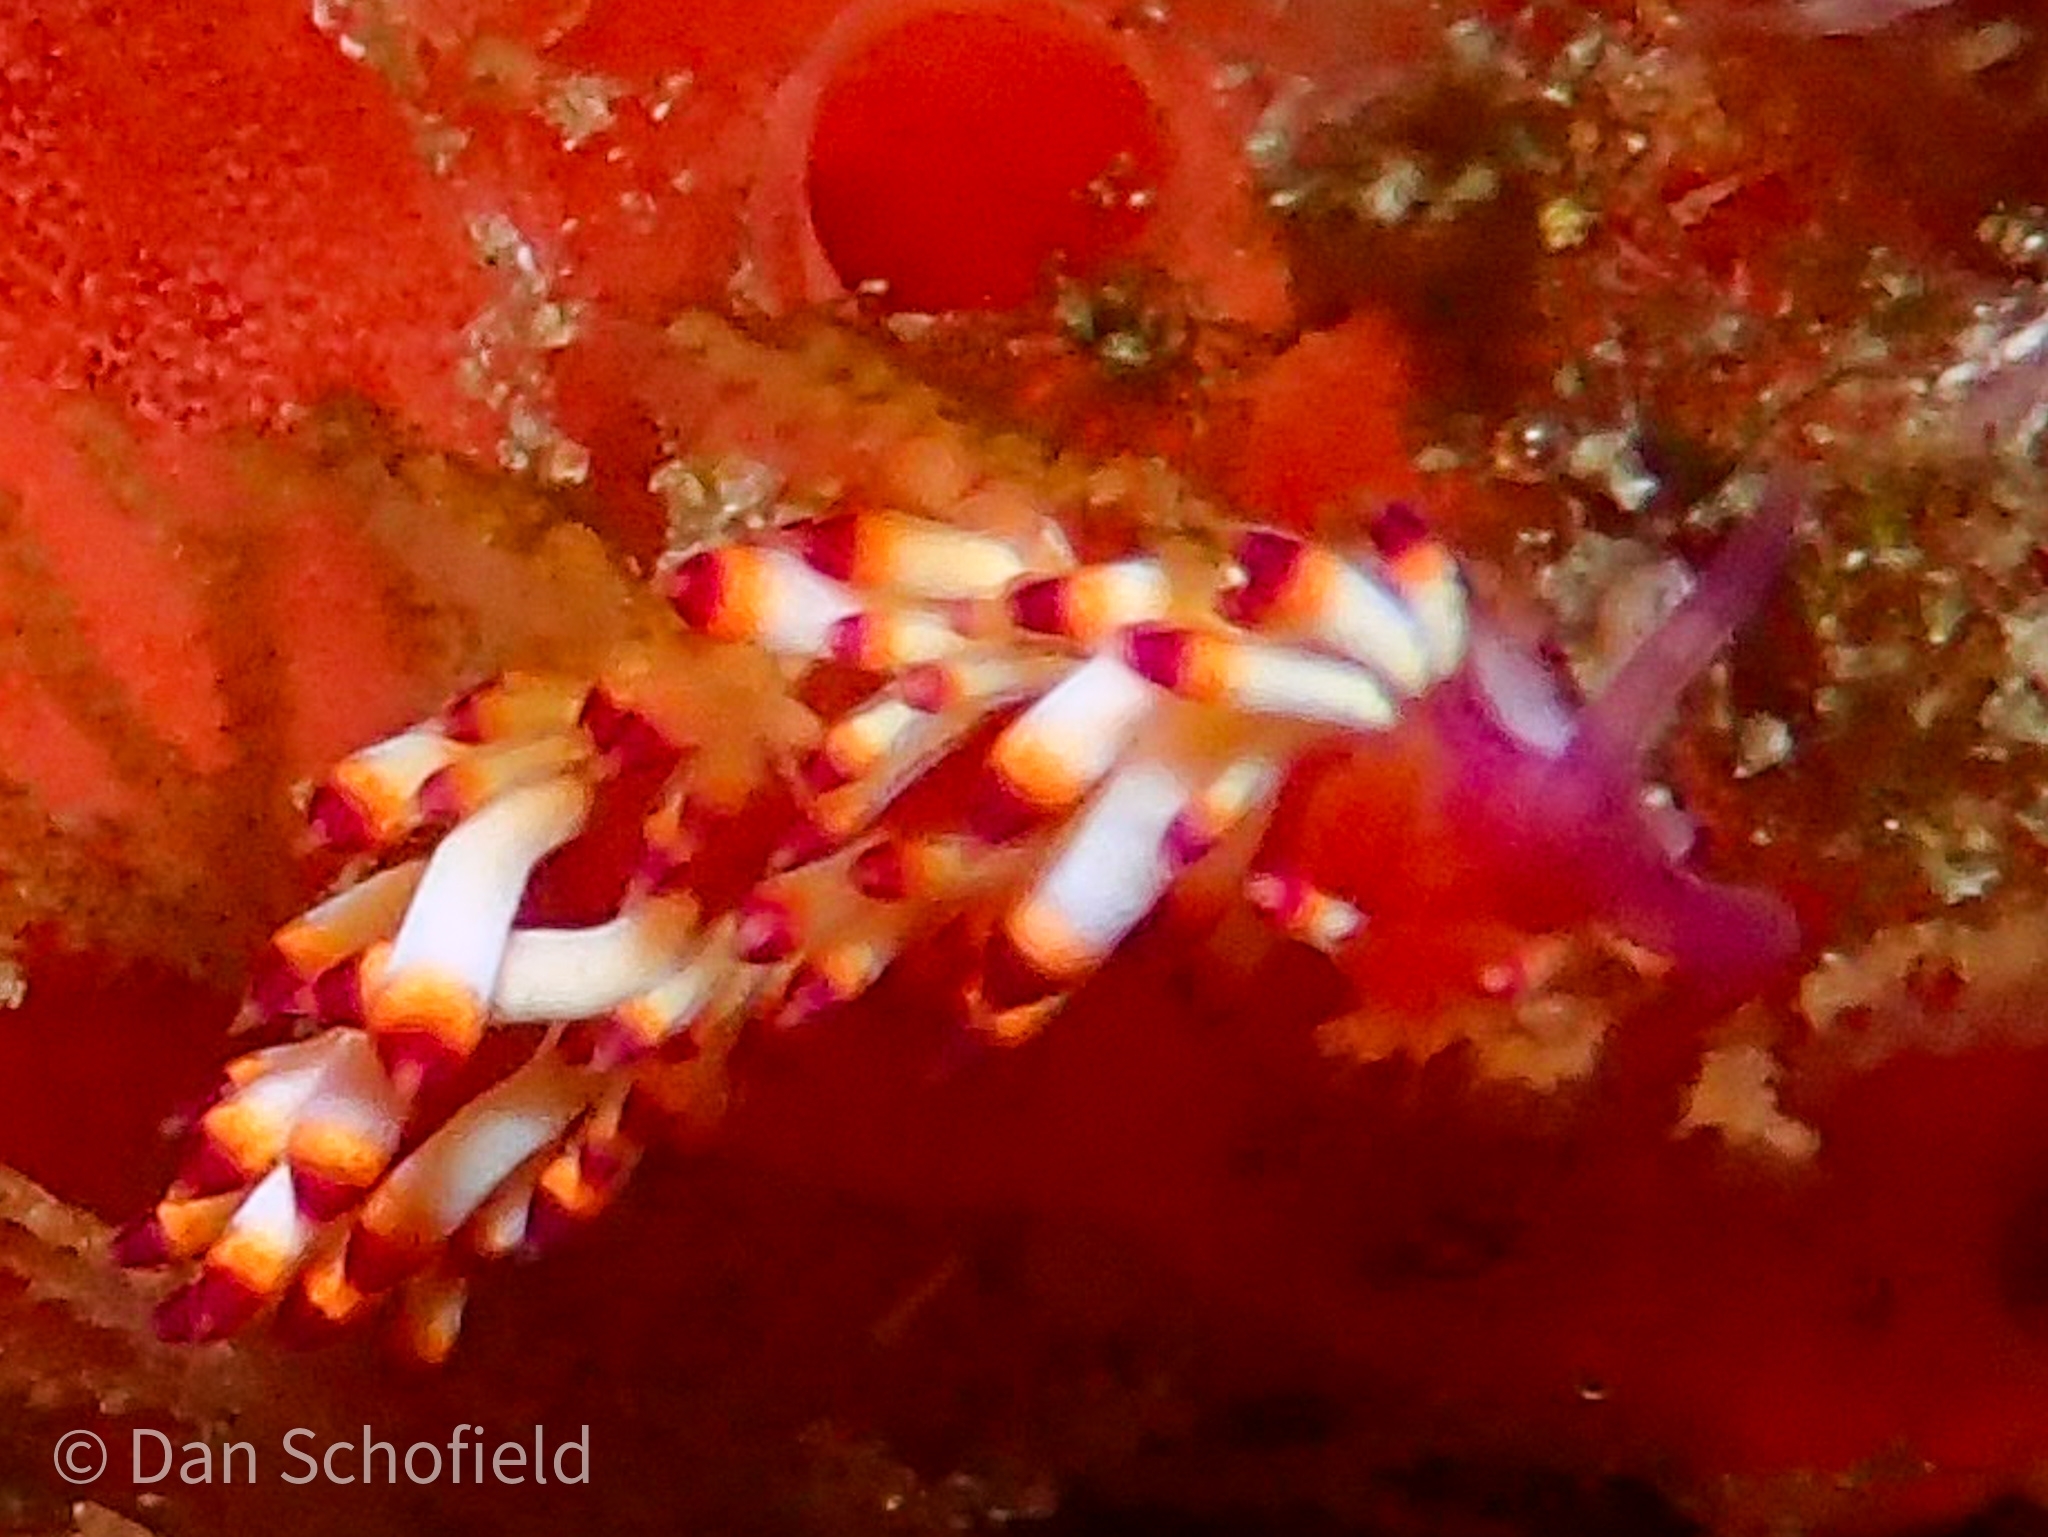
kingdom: Animalia
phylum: Mollusca
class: Gastropoda
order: Nudibranchia
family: Flabellinidae
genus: Coryphellina
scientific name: Coryphellina delicata
